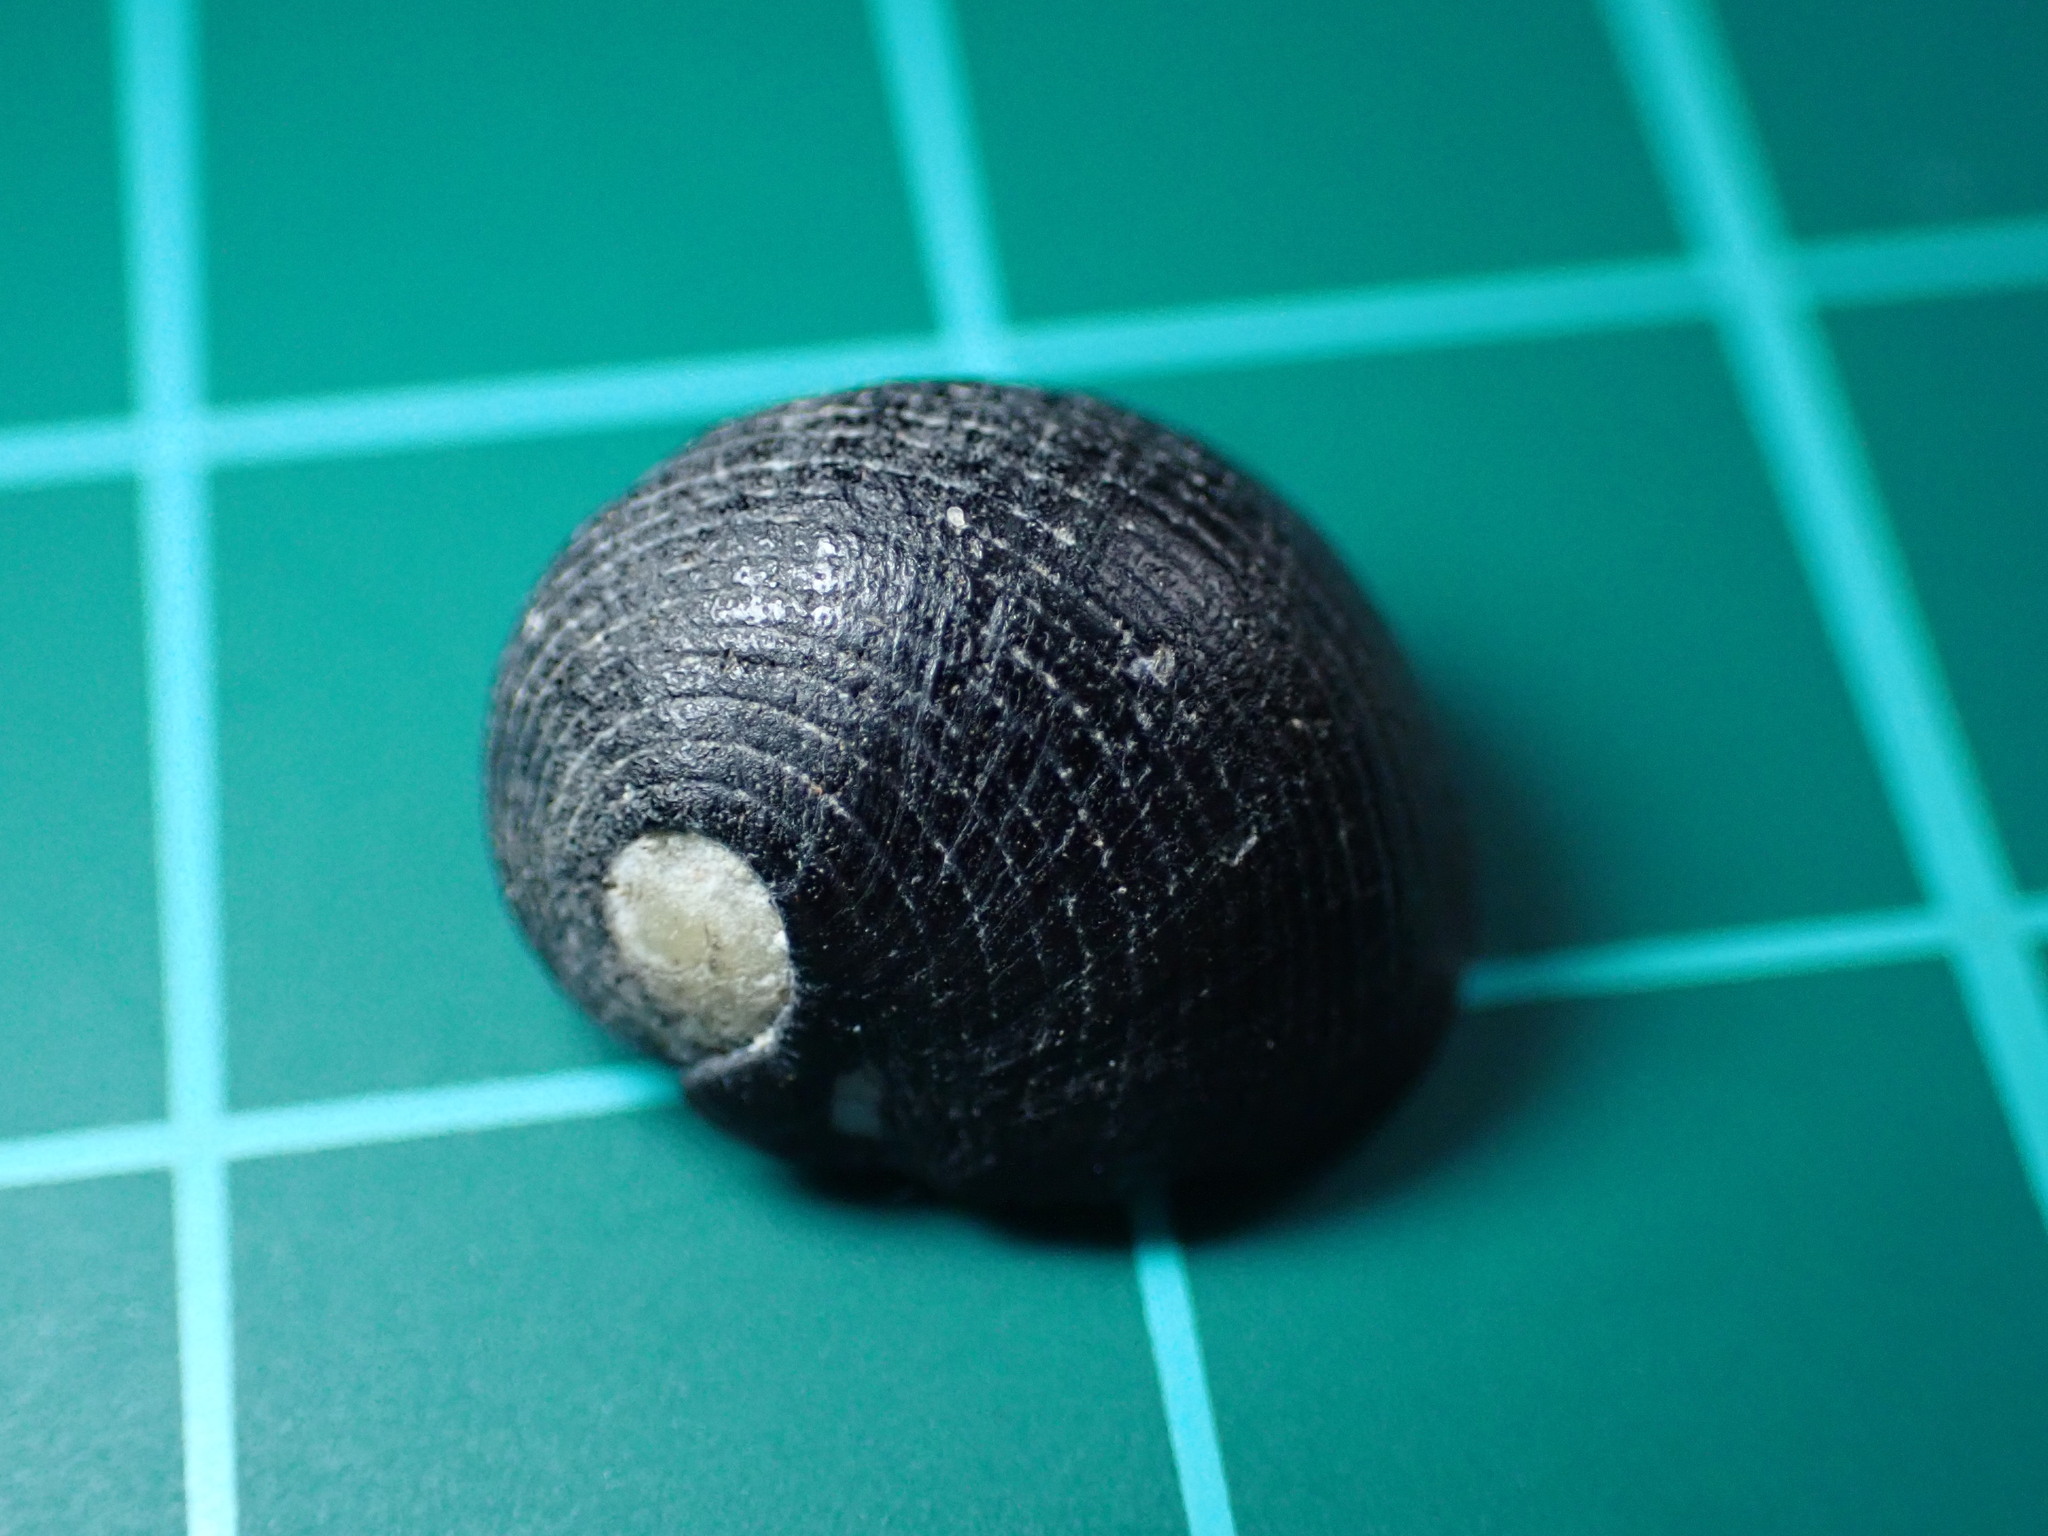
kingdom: Animalia
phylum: Mollusca
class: Gastropoda
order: Cycloneritida
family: Neritidae
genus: Nerita
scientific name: Nerita picea
